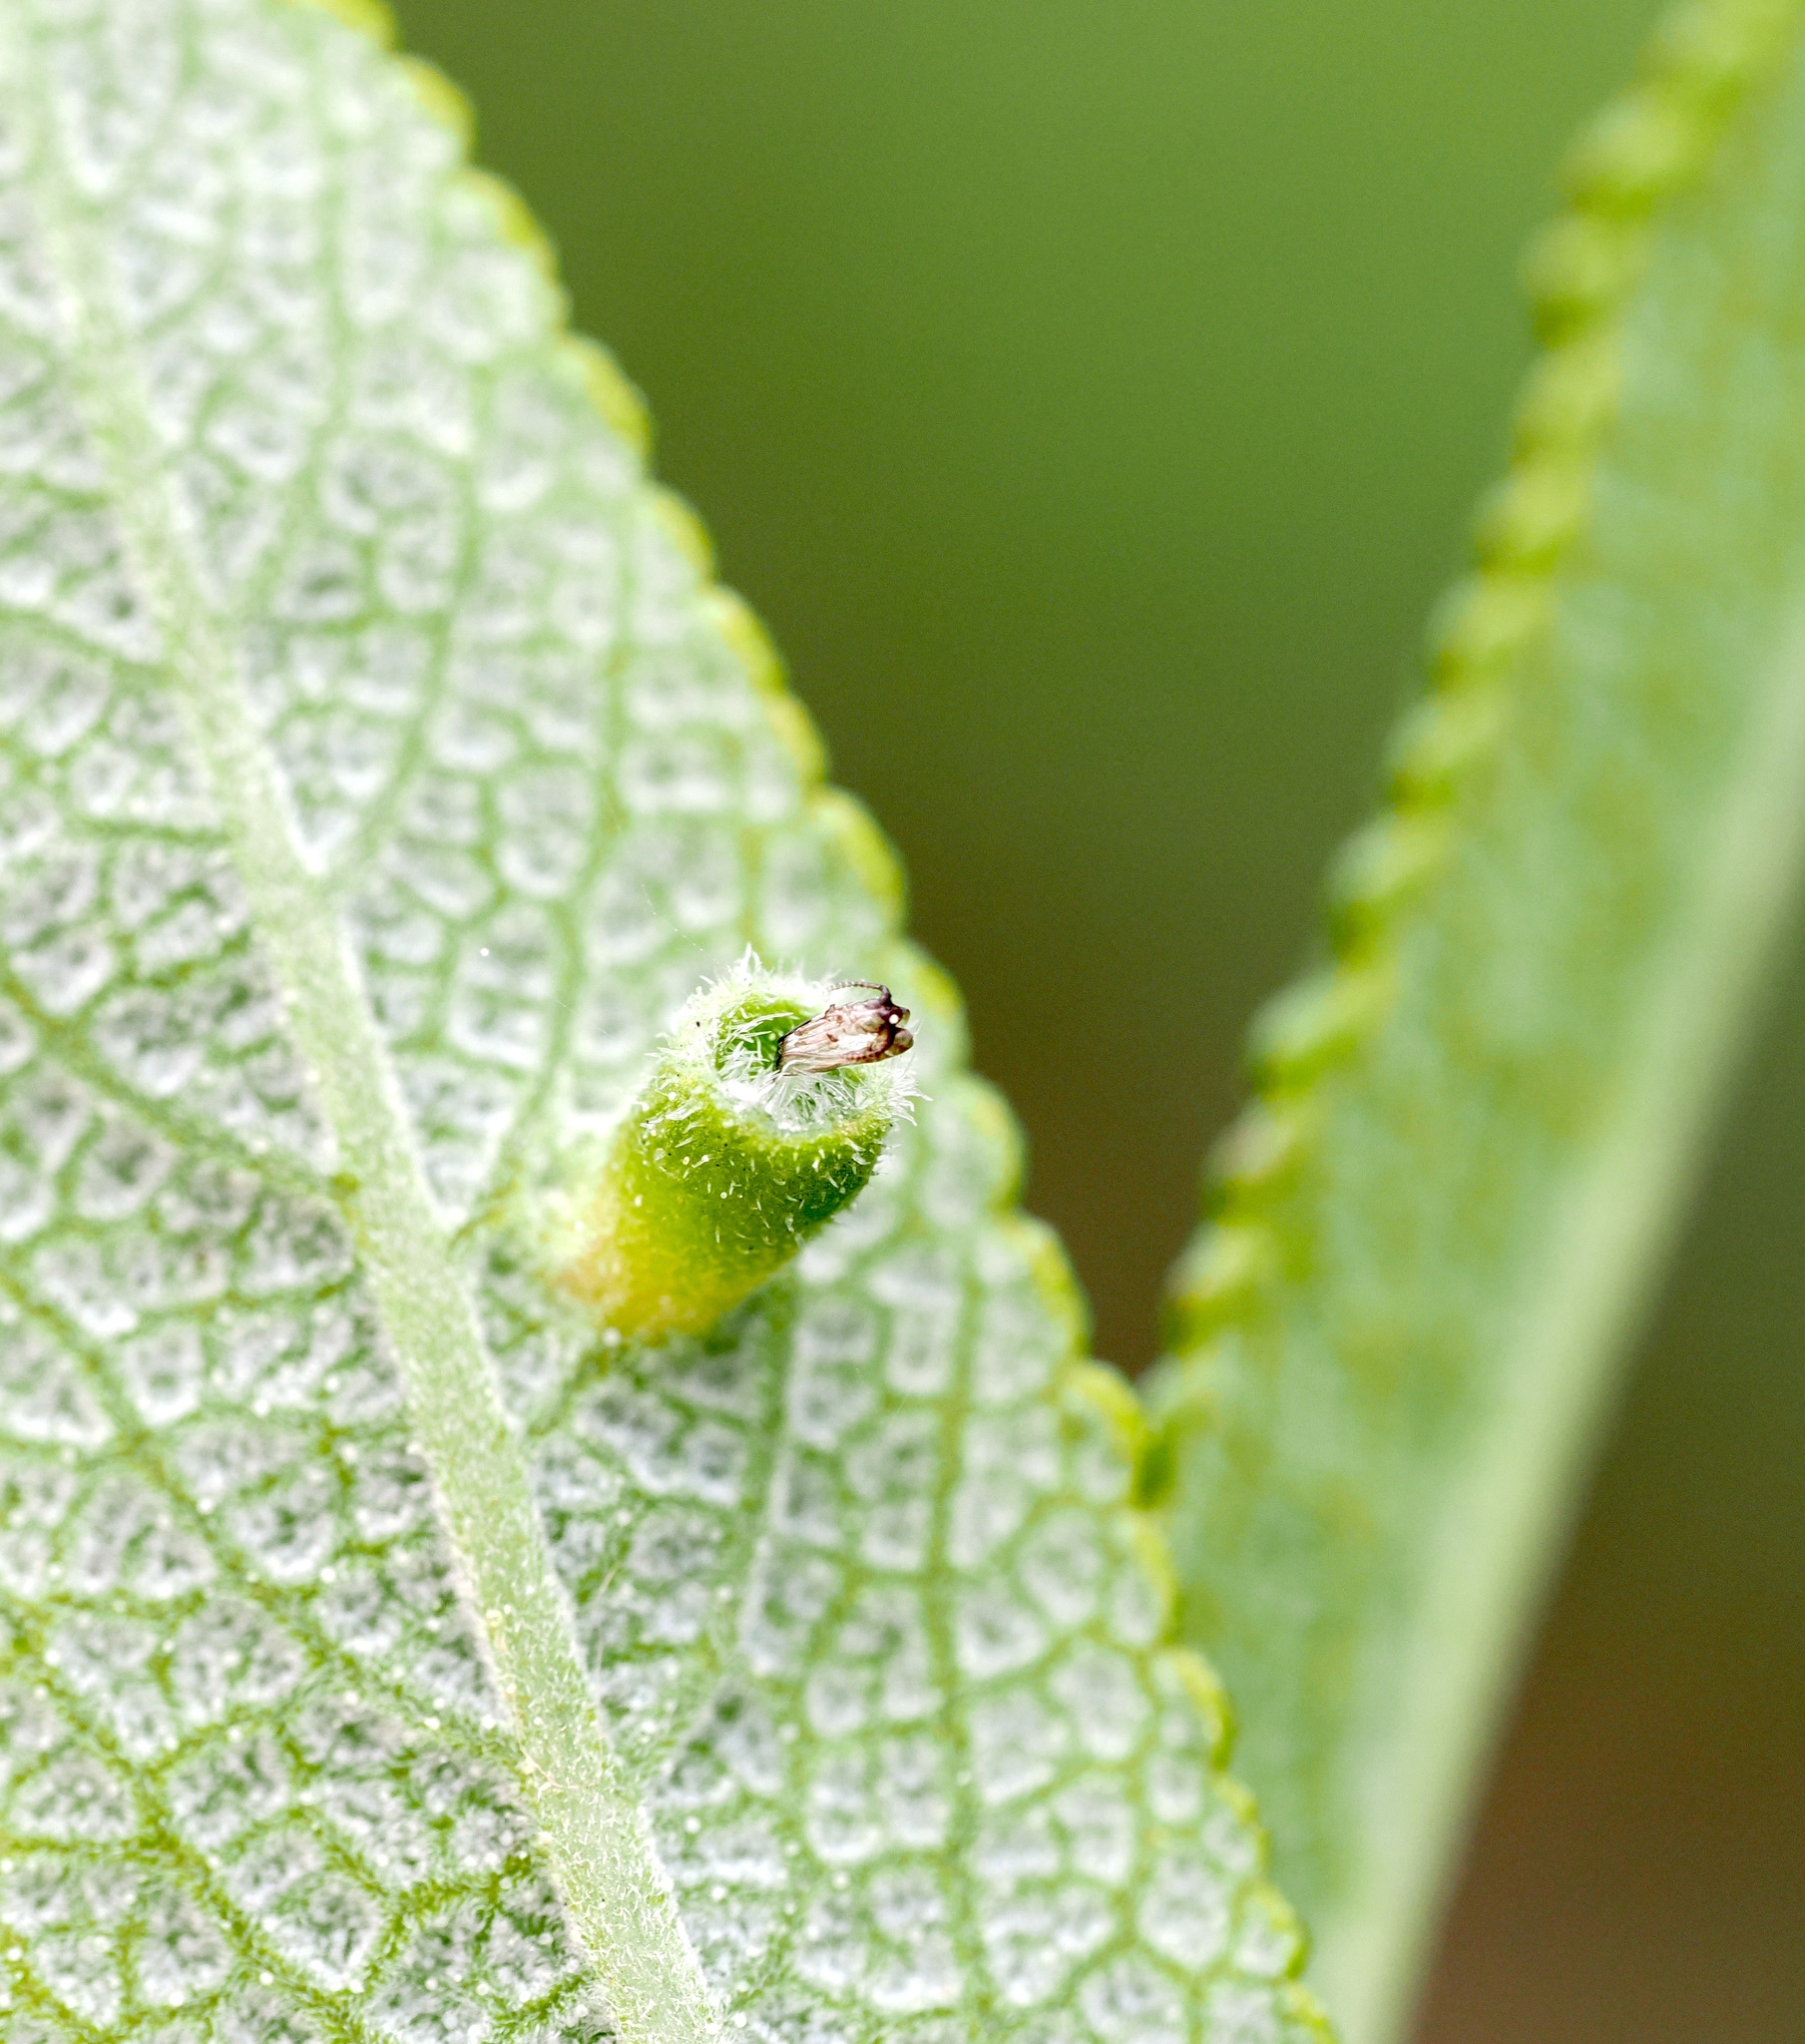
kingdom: Animalia
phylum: Arthropoda
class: Insecta
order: Diptera
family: Cecidomyiidae
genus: Rhopalomyia
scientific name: Rhopalomyia salviae
